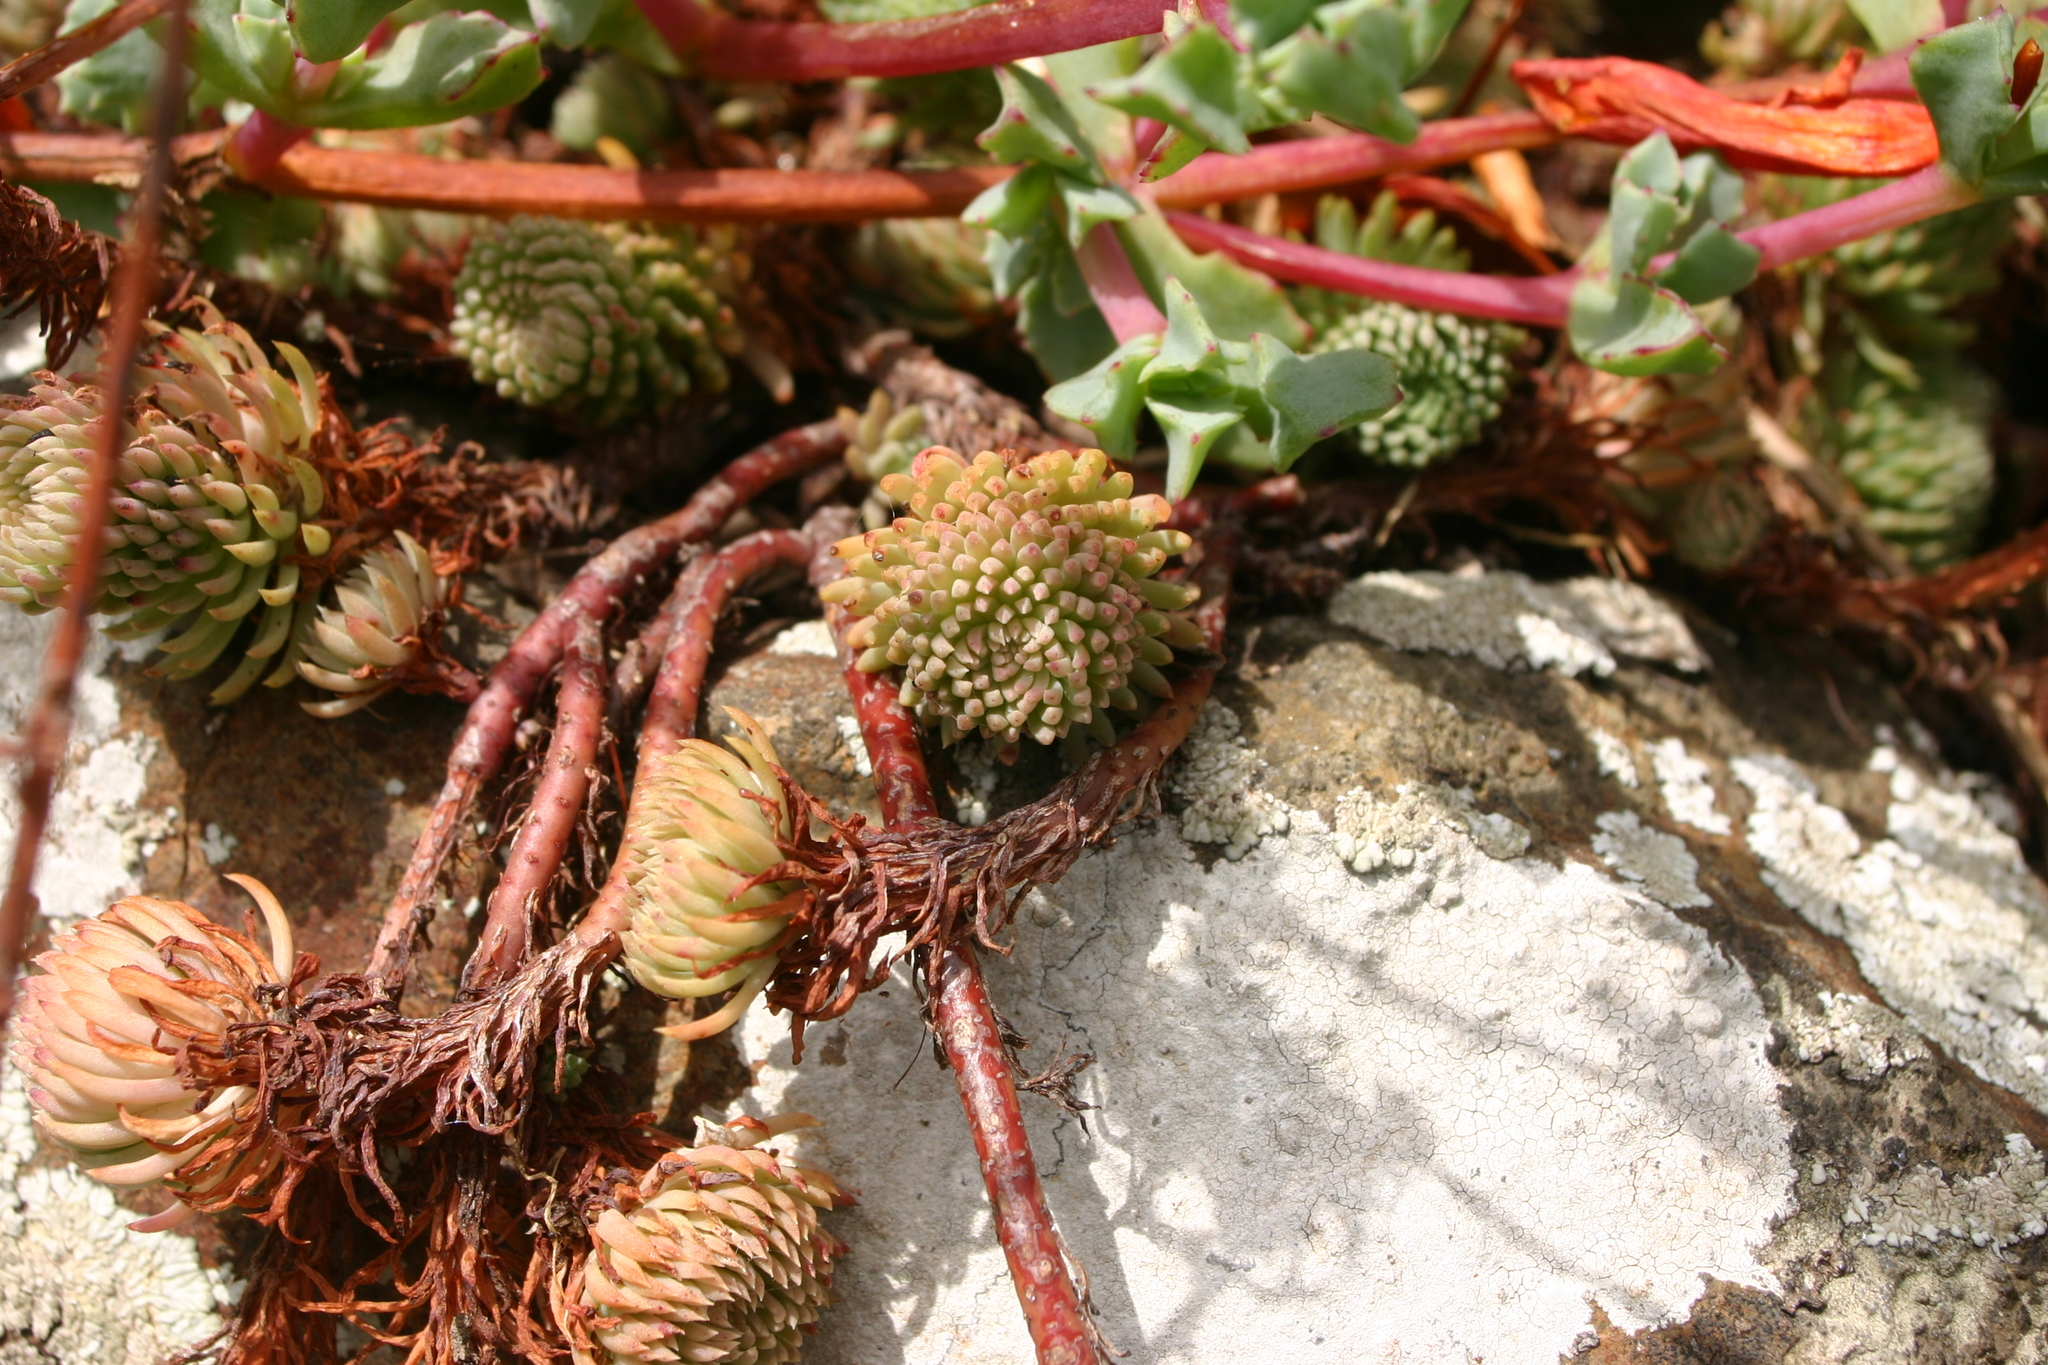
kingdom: Plantae
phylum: Tracheophyta
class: Magnoliopsida
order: Saxifragales
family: Crassulaceae
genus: Petrosedum
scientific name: Petrosedum forsterianum
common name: Forster's stonecrop
